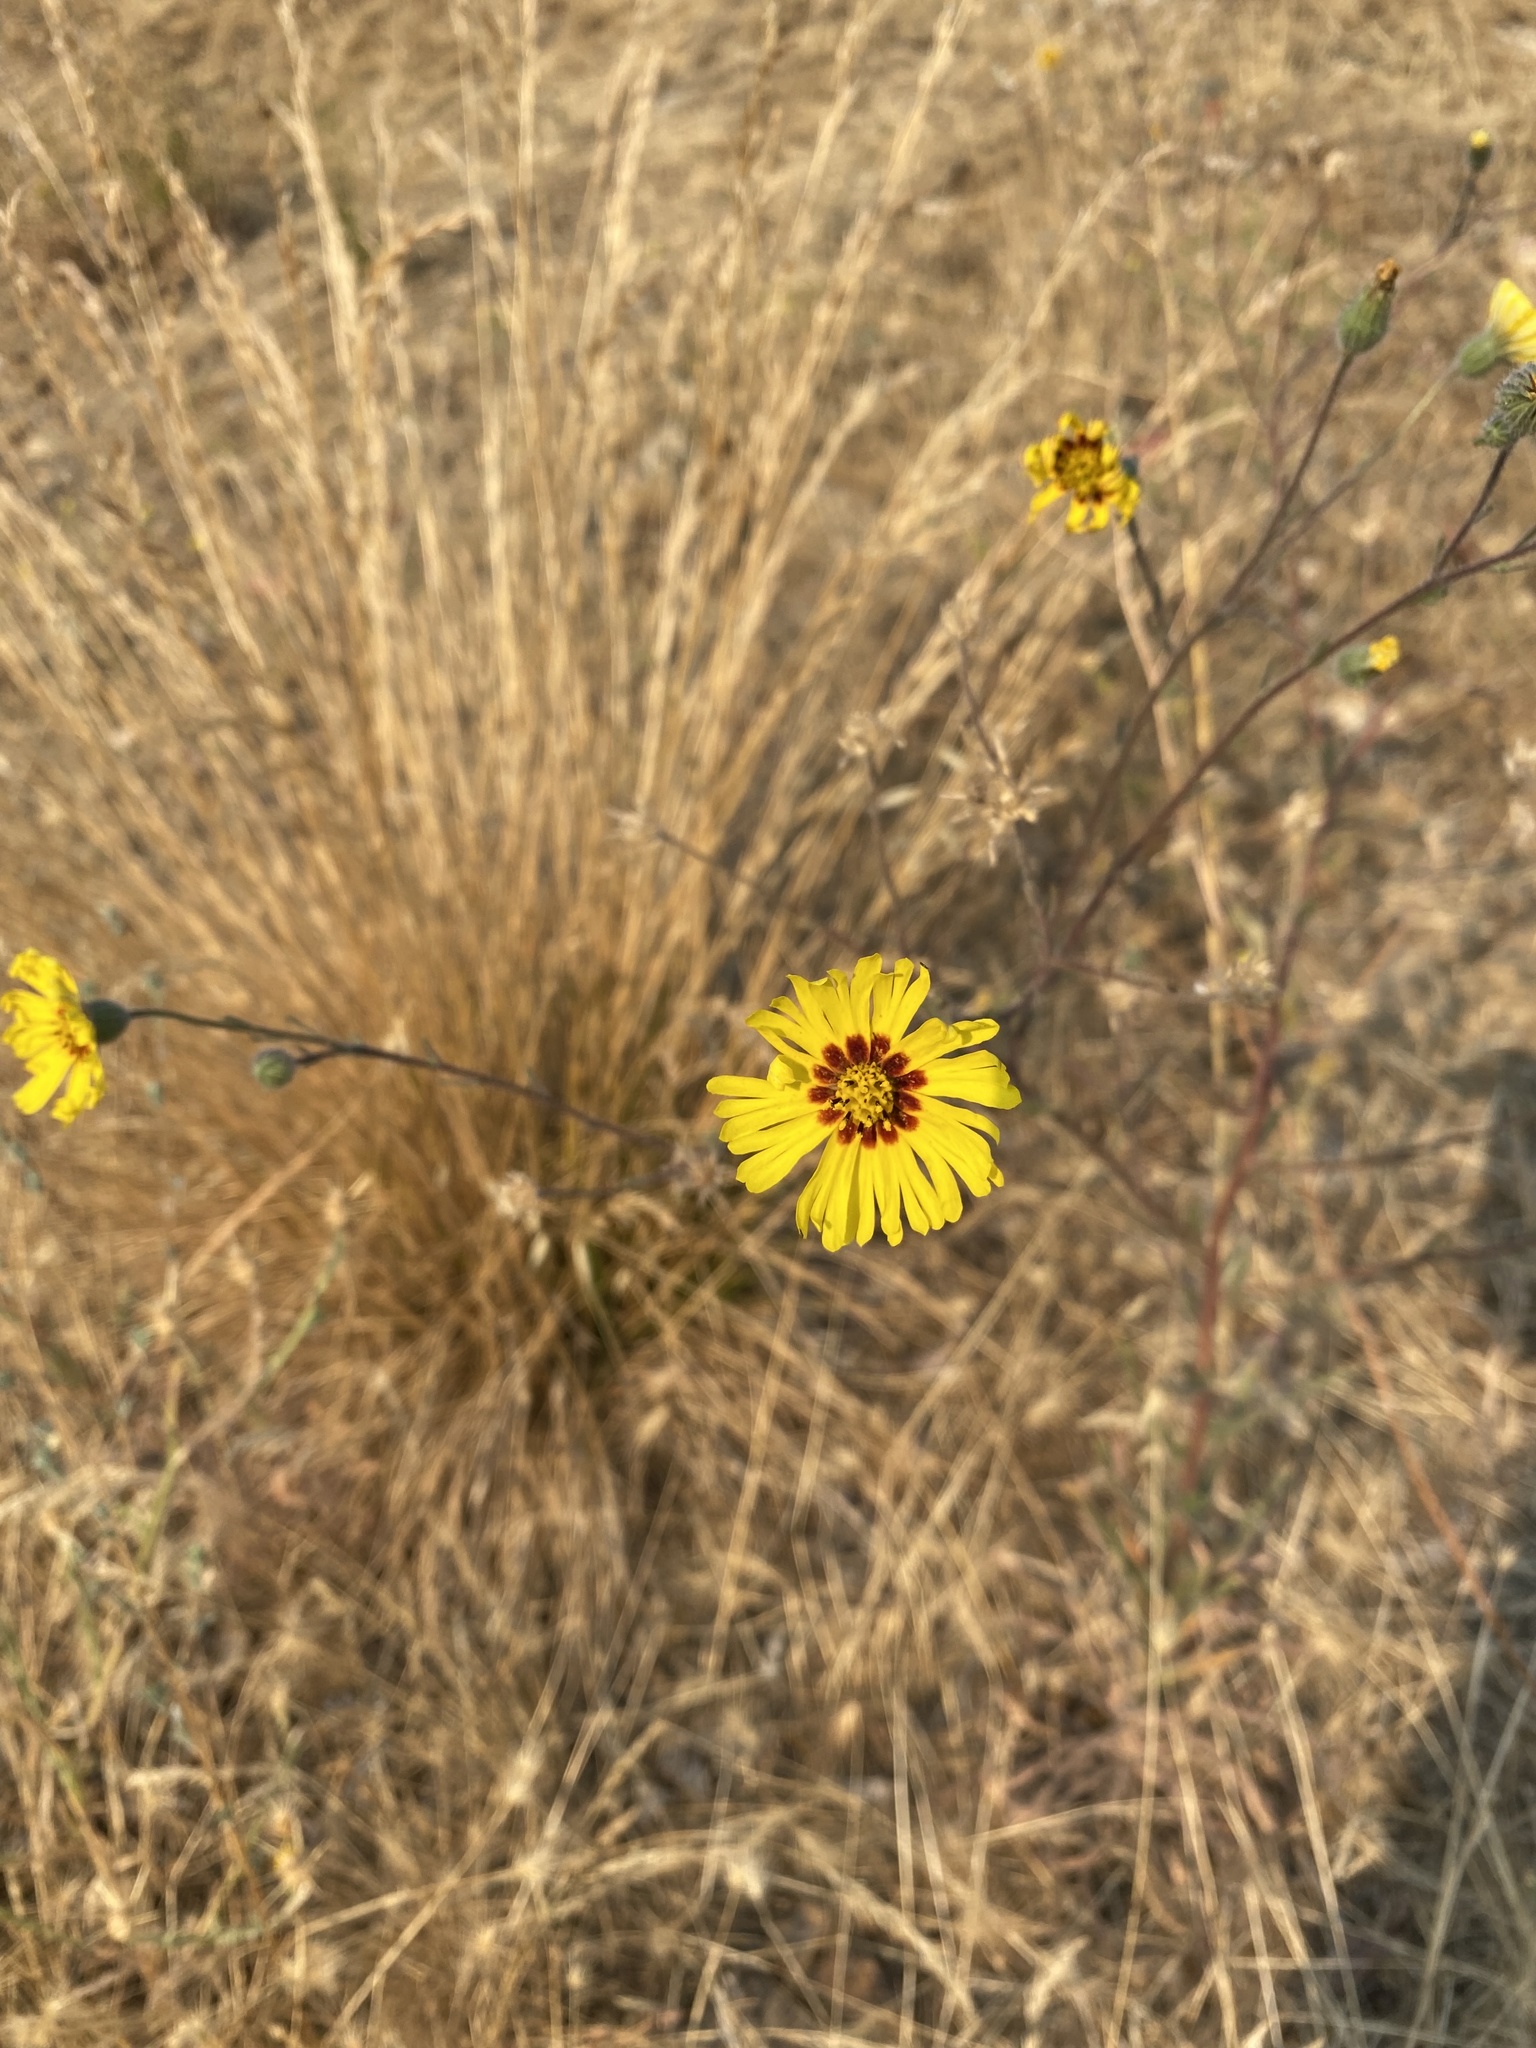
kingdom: Plantae
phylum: Tracheophyta
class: Magnoliopsida
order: Asterales
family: Asteraceae
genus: Madia
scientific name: Madia elegans
